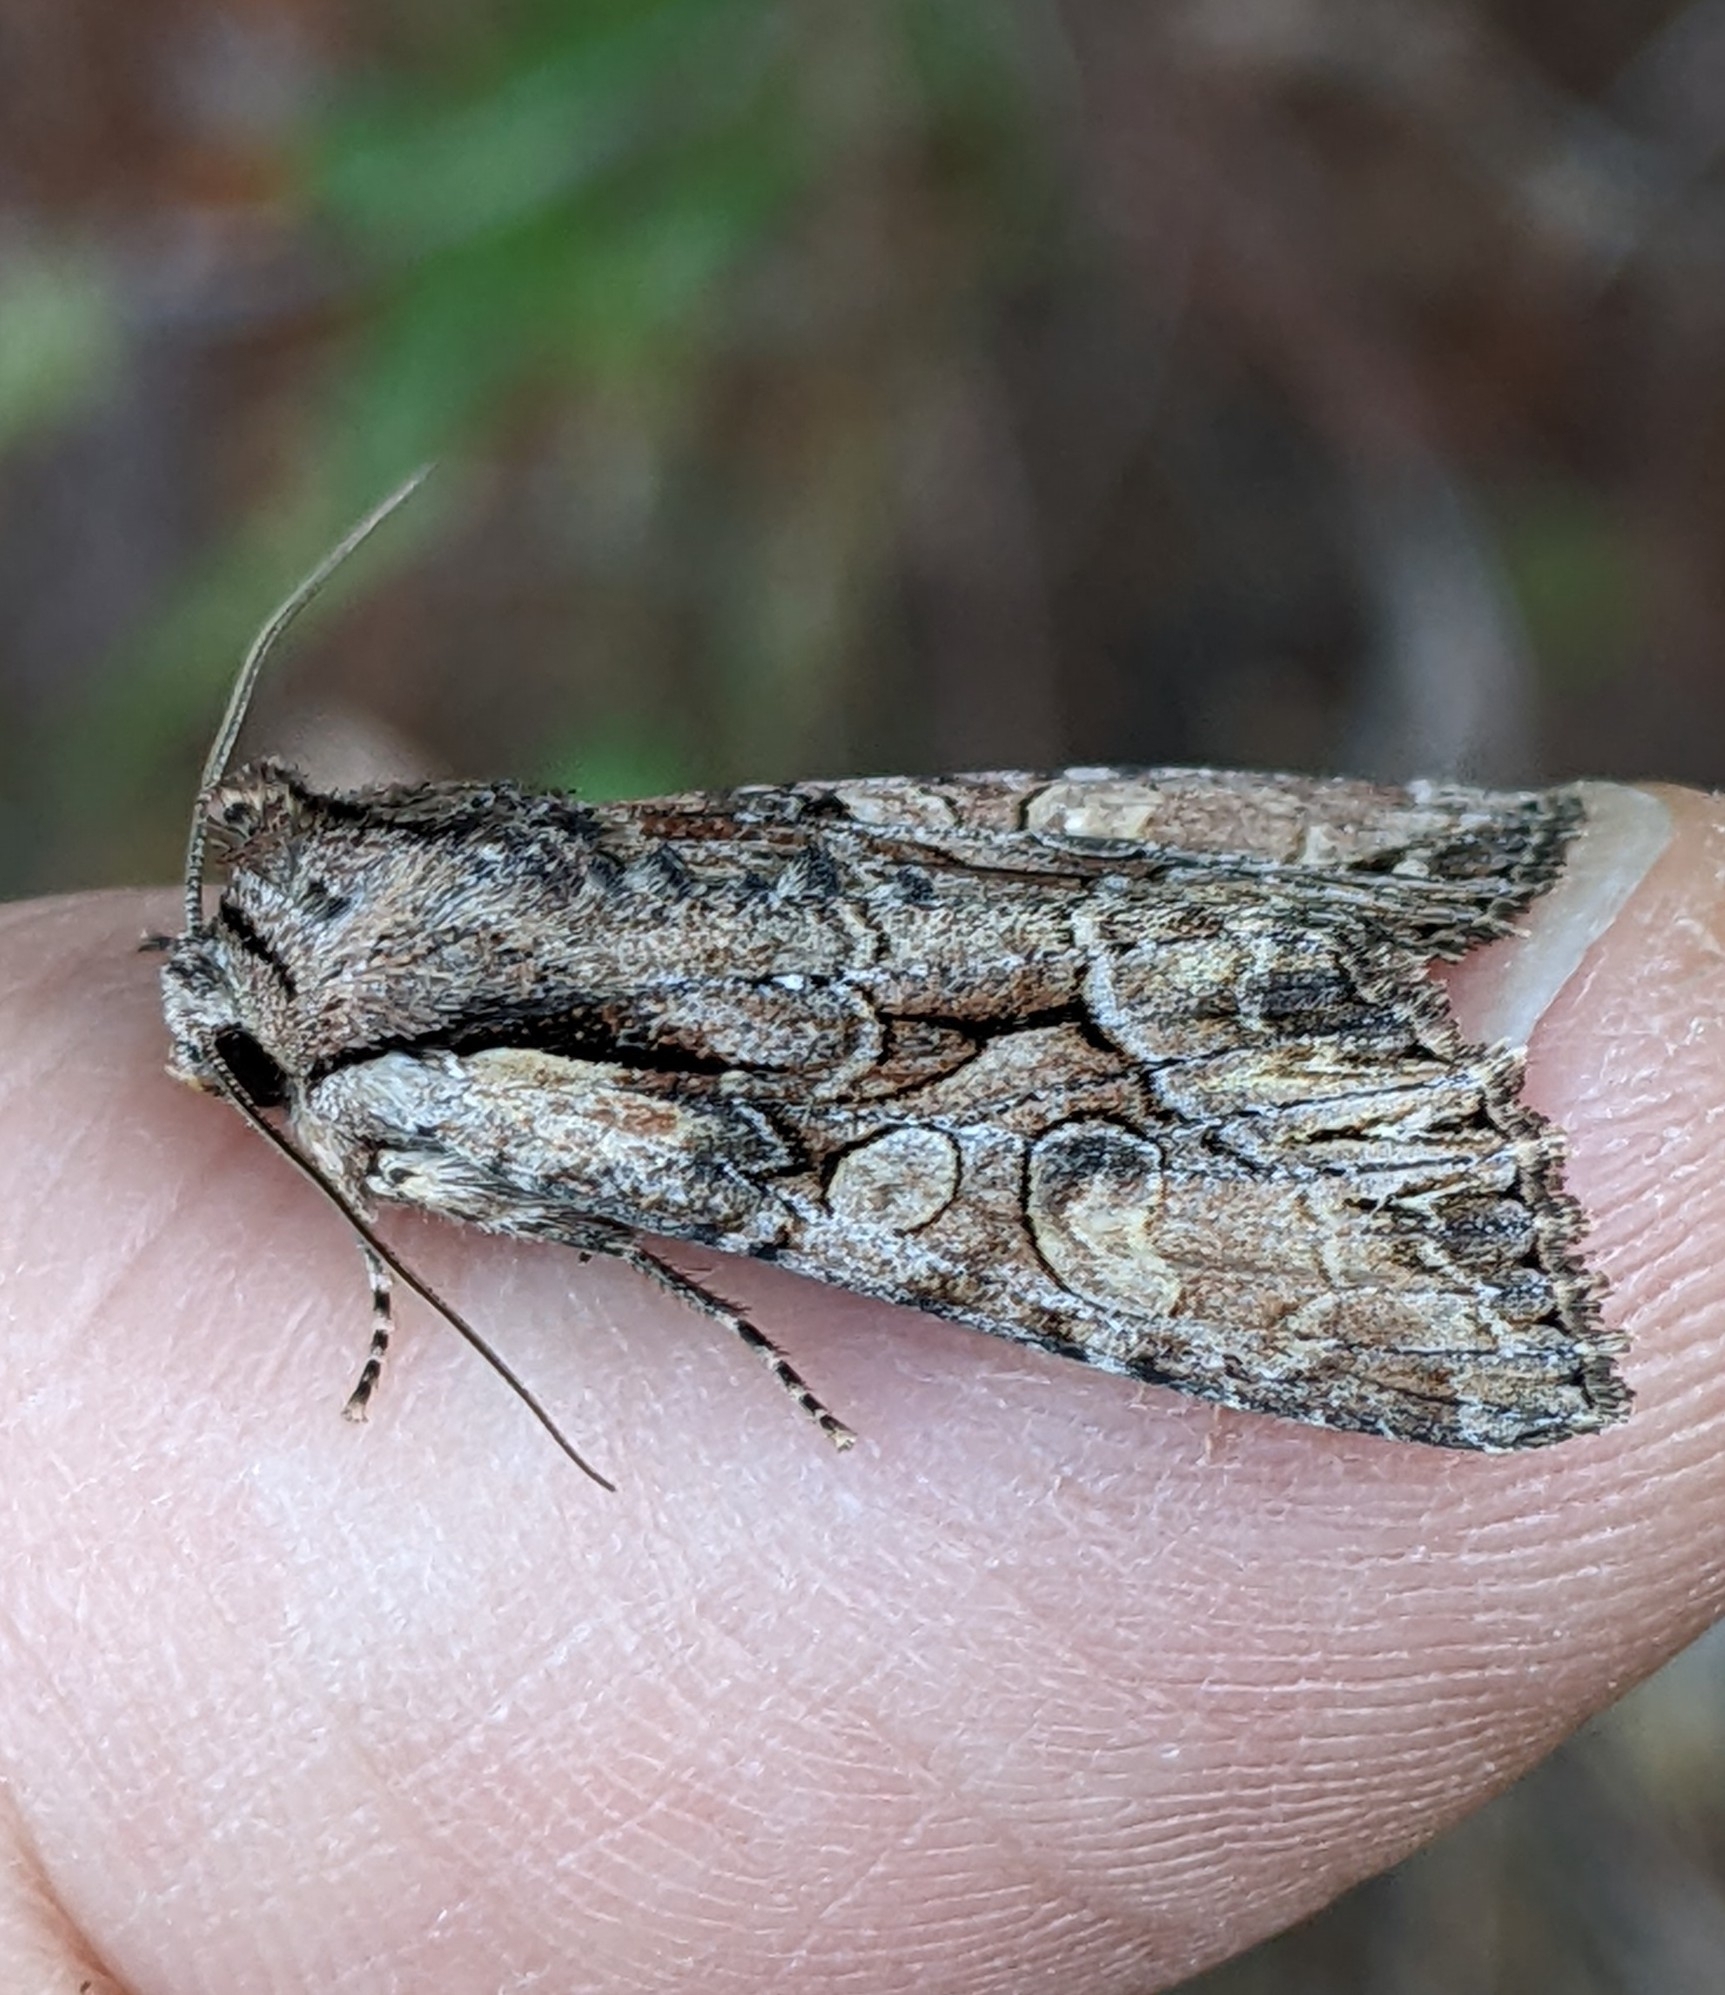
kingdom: Animalia
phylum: Arthropoda
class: Insecta
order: Lepidoptera
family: Noctuidae
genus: Lacanobia
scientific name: Lacanobia subjuncta
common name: Speckled cutworm moth
